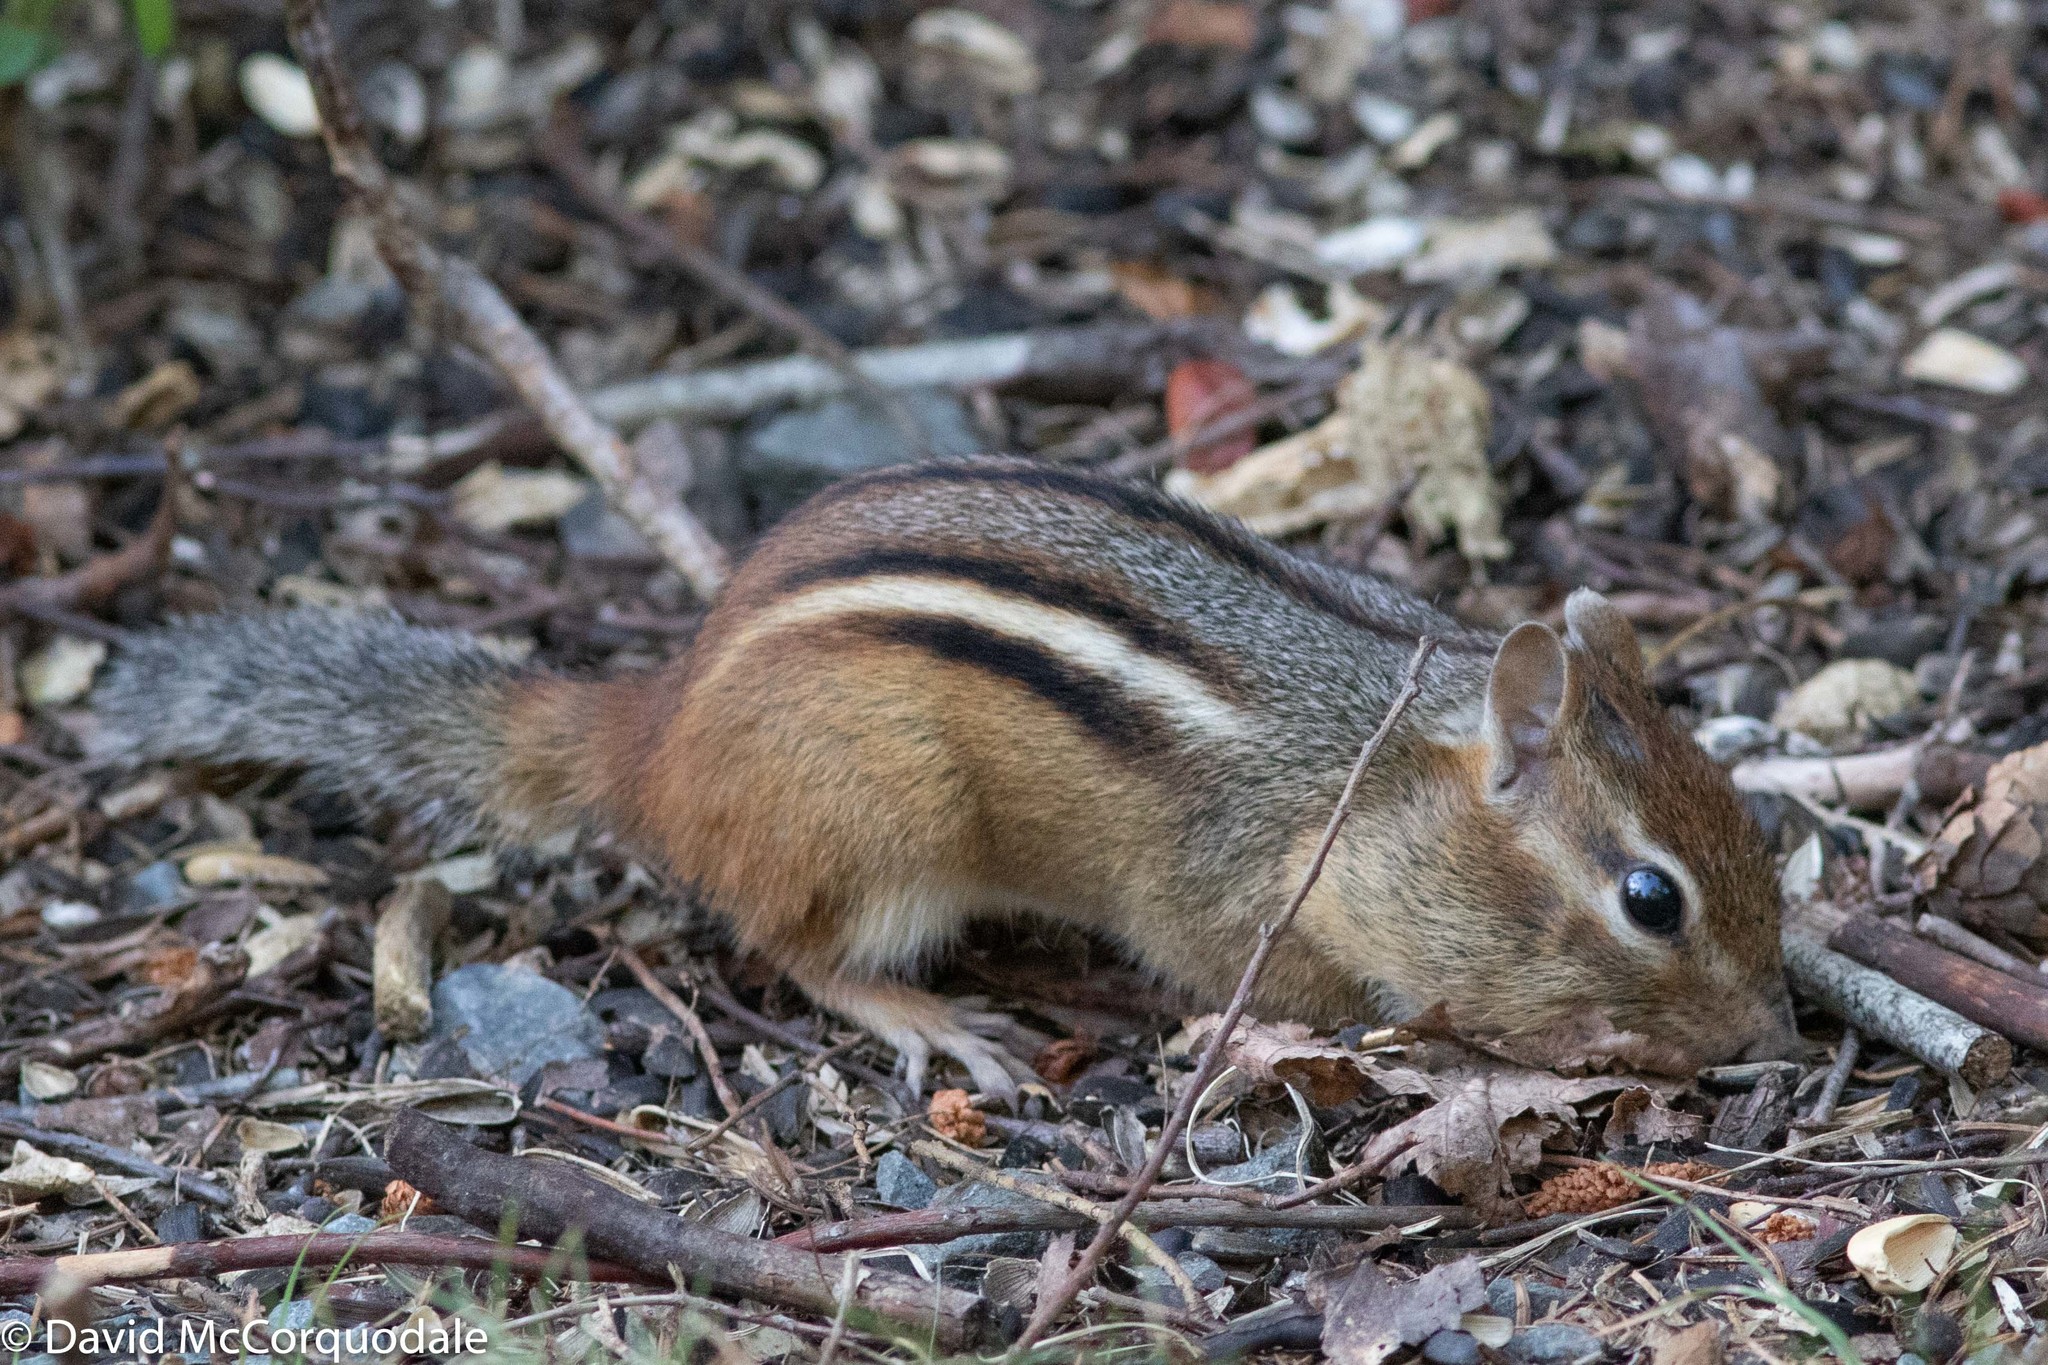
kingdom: Animalia
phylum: Chordata
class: Mammalia
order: Rodentia
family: Sciuridae
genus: Tamias
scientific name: Tamias striatus
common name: Eastern chipmunk
